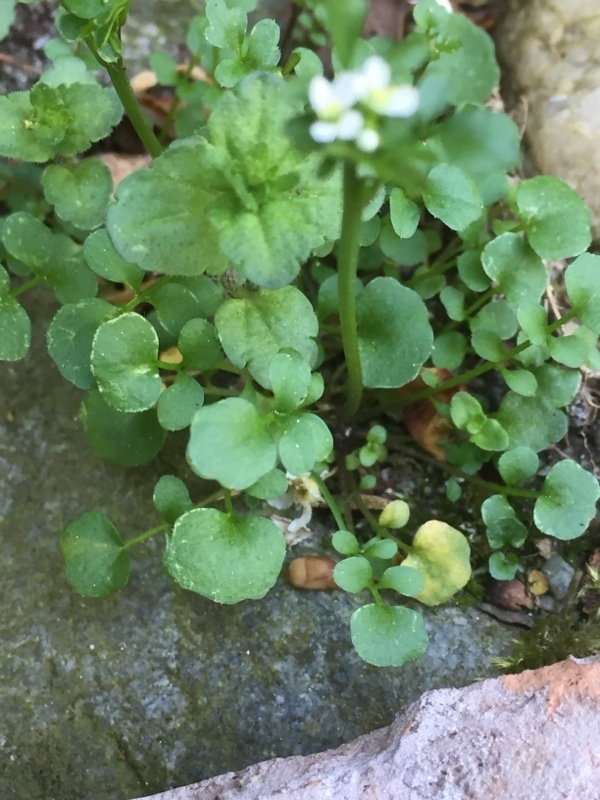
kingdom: Plantae
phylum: Tracheophyta
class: Magnoliopsida
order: Brassicales
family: Brassicaceae
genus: Cardamine
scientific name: Cardamine hirsuta
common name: Hairy bittercress
